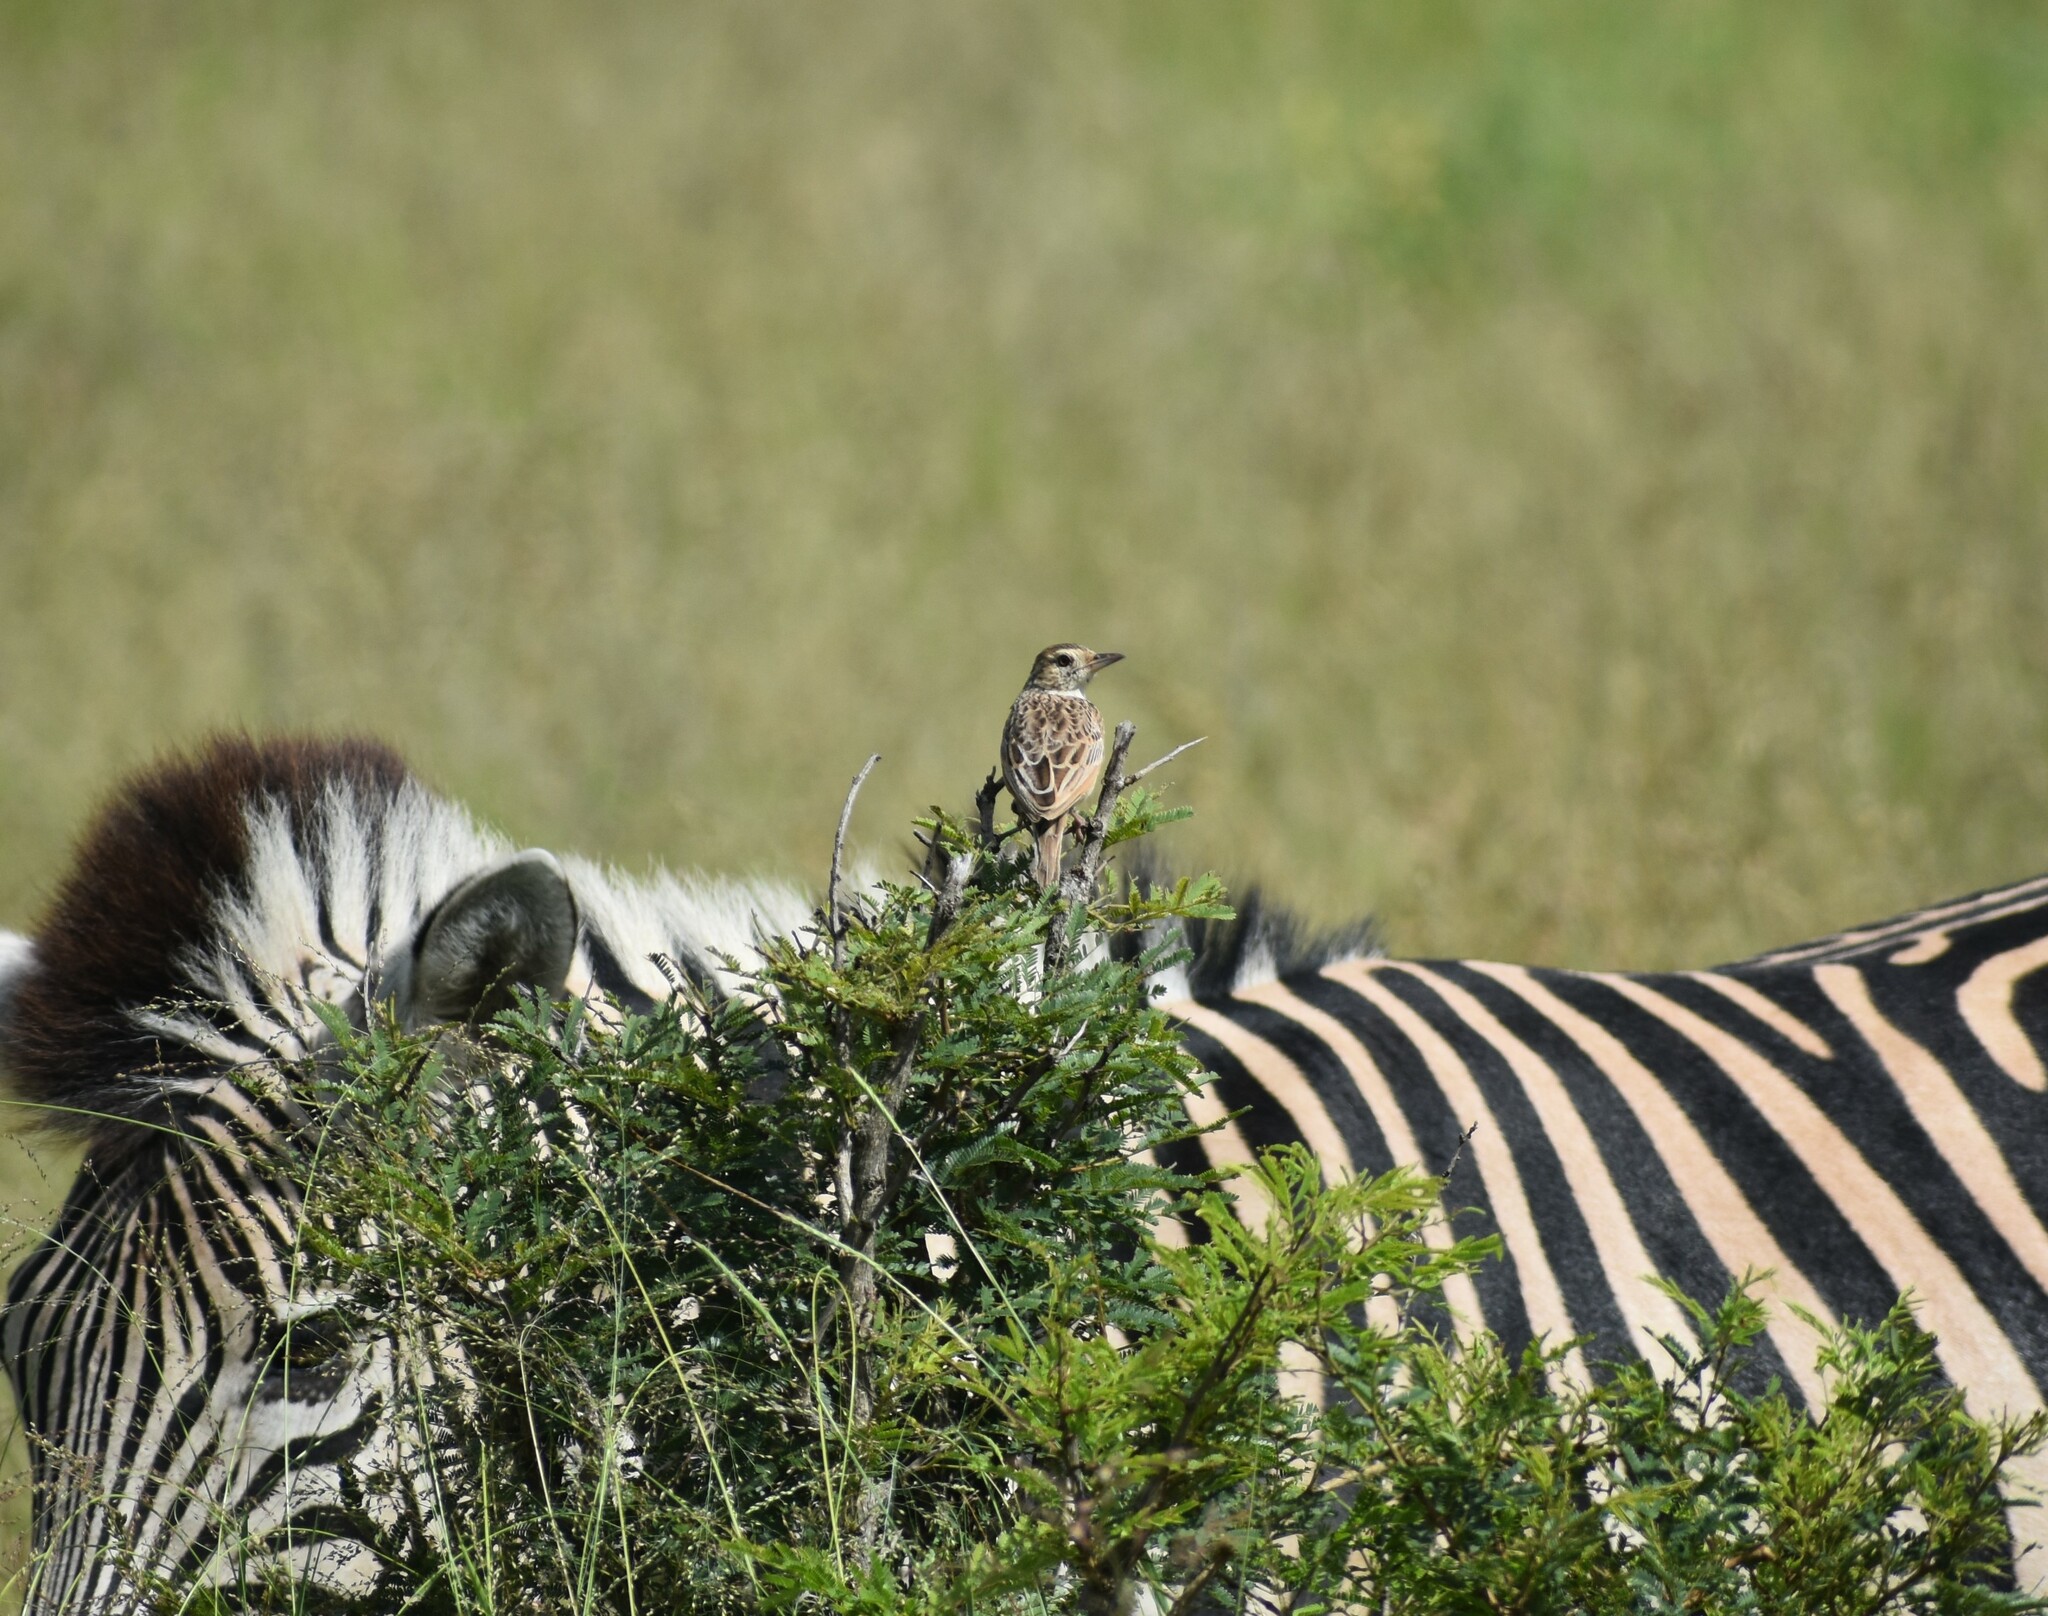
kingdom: Animalia
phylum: Chordata
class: Aves
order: Passeriformes
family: Alaudidae
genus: Mirafra
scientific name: Mirafra africana
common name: Rufous-naped lark
